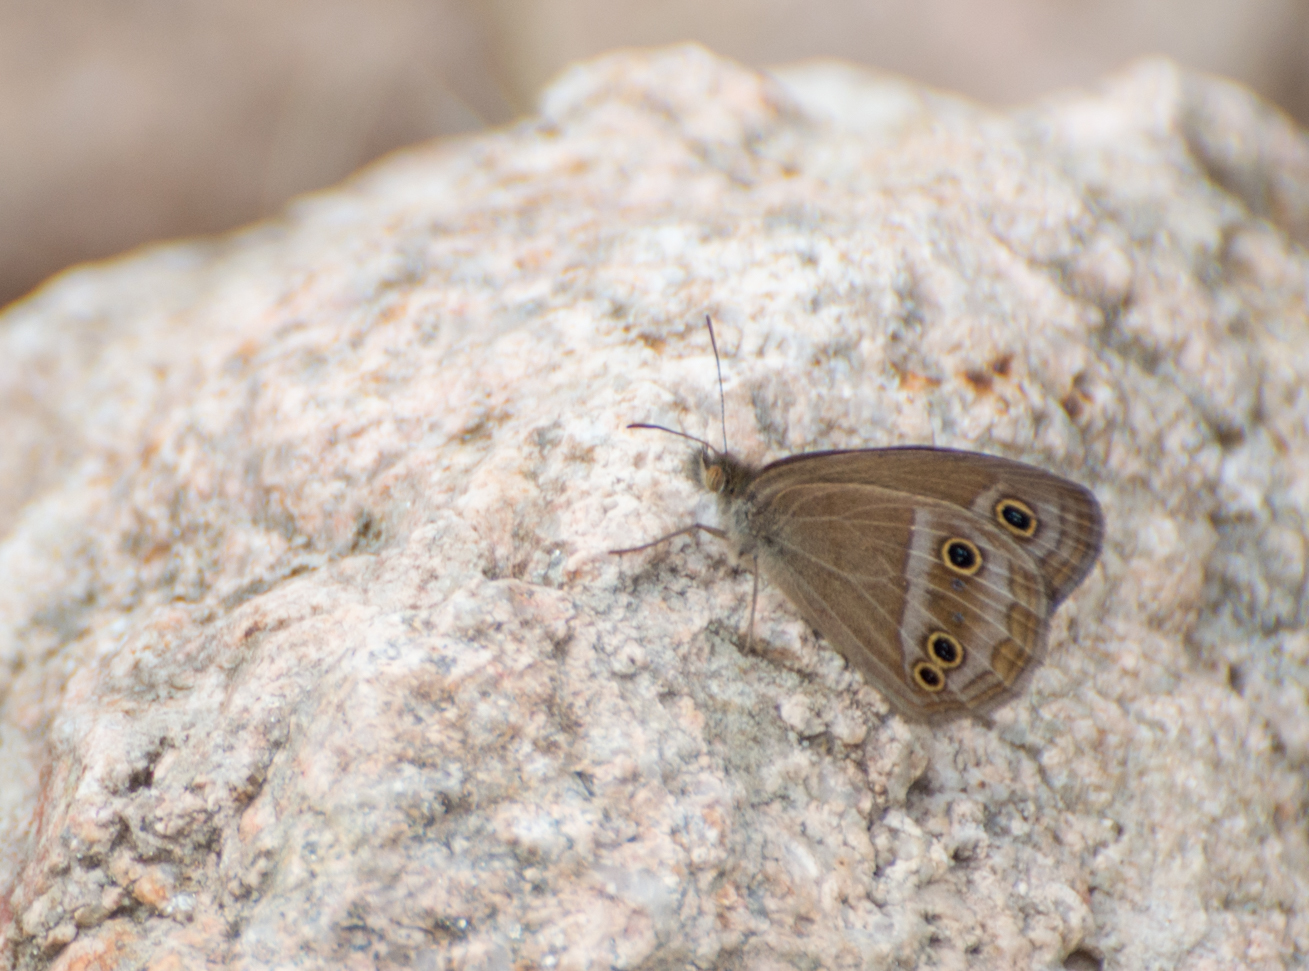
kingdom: Animalia
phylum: Arthropoda
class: Insecta
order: Lepidoptera
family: Nymphalidae
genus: Stegosatyrus
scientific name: Stegosatyrus periphas
